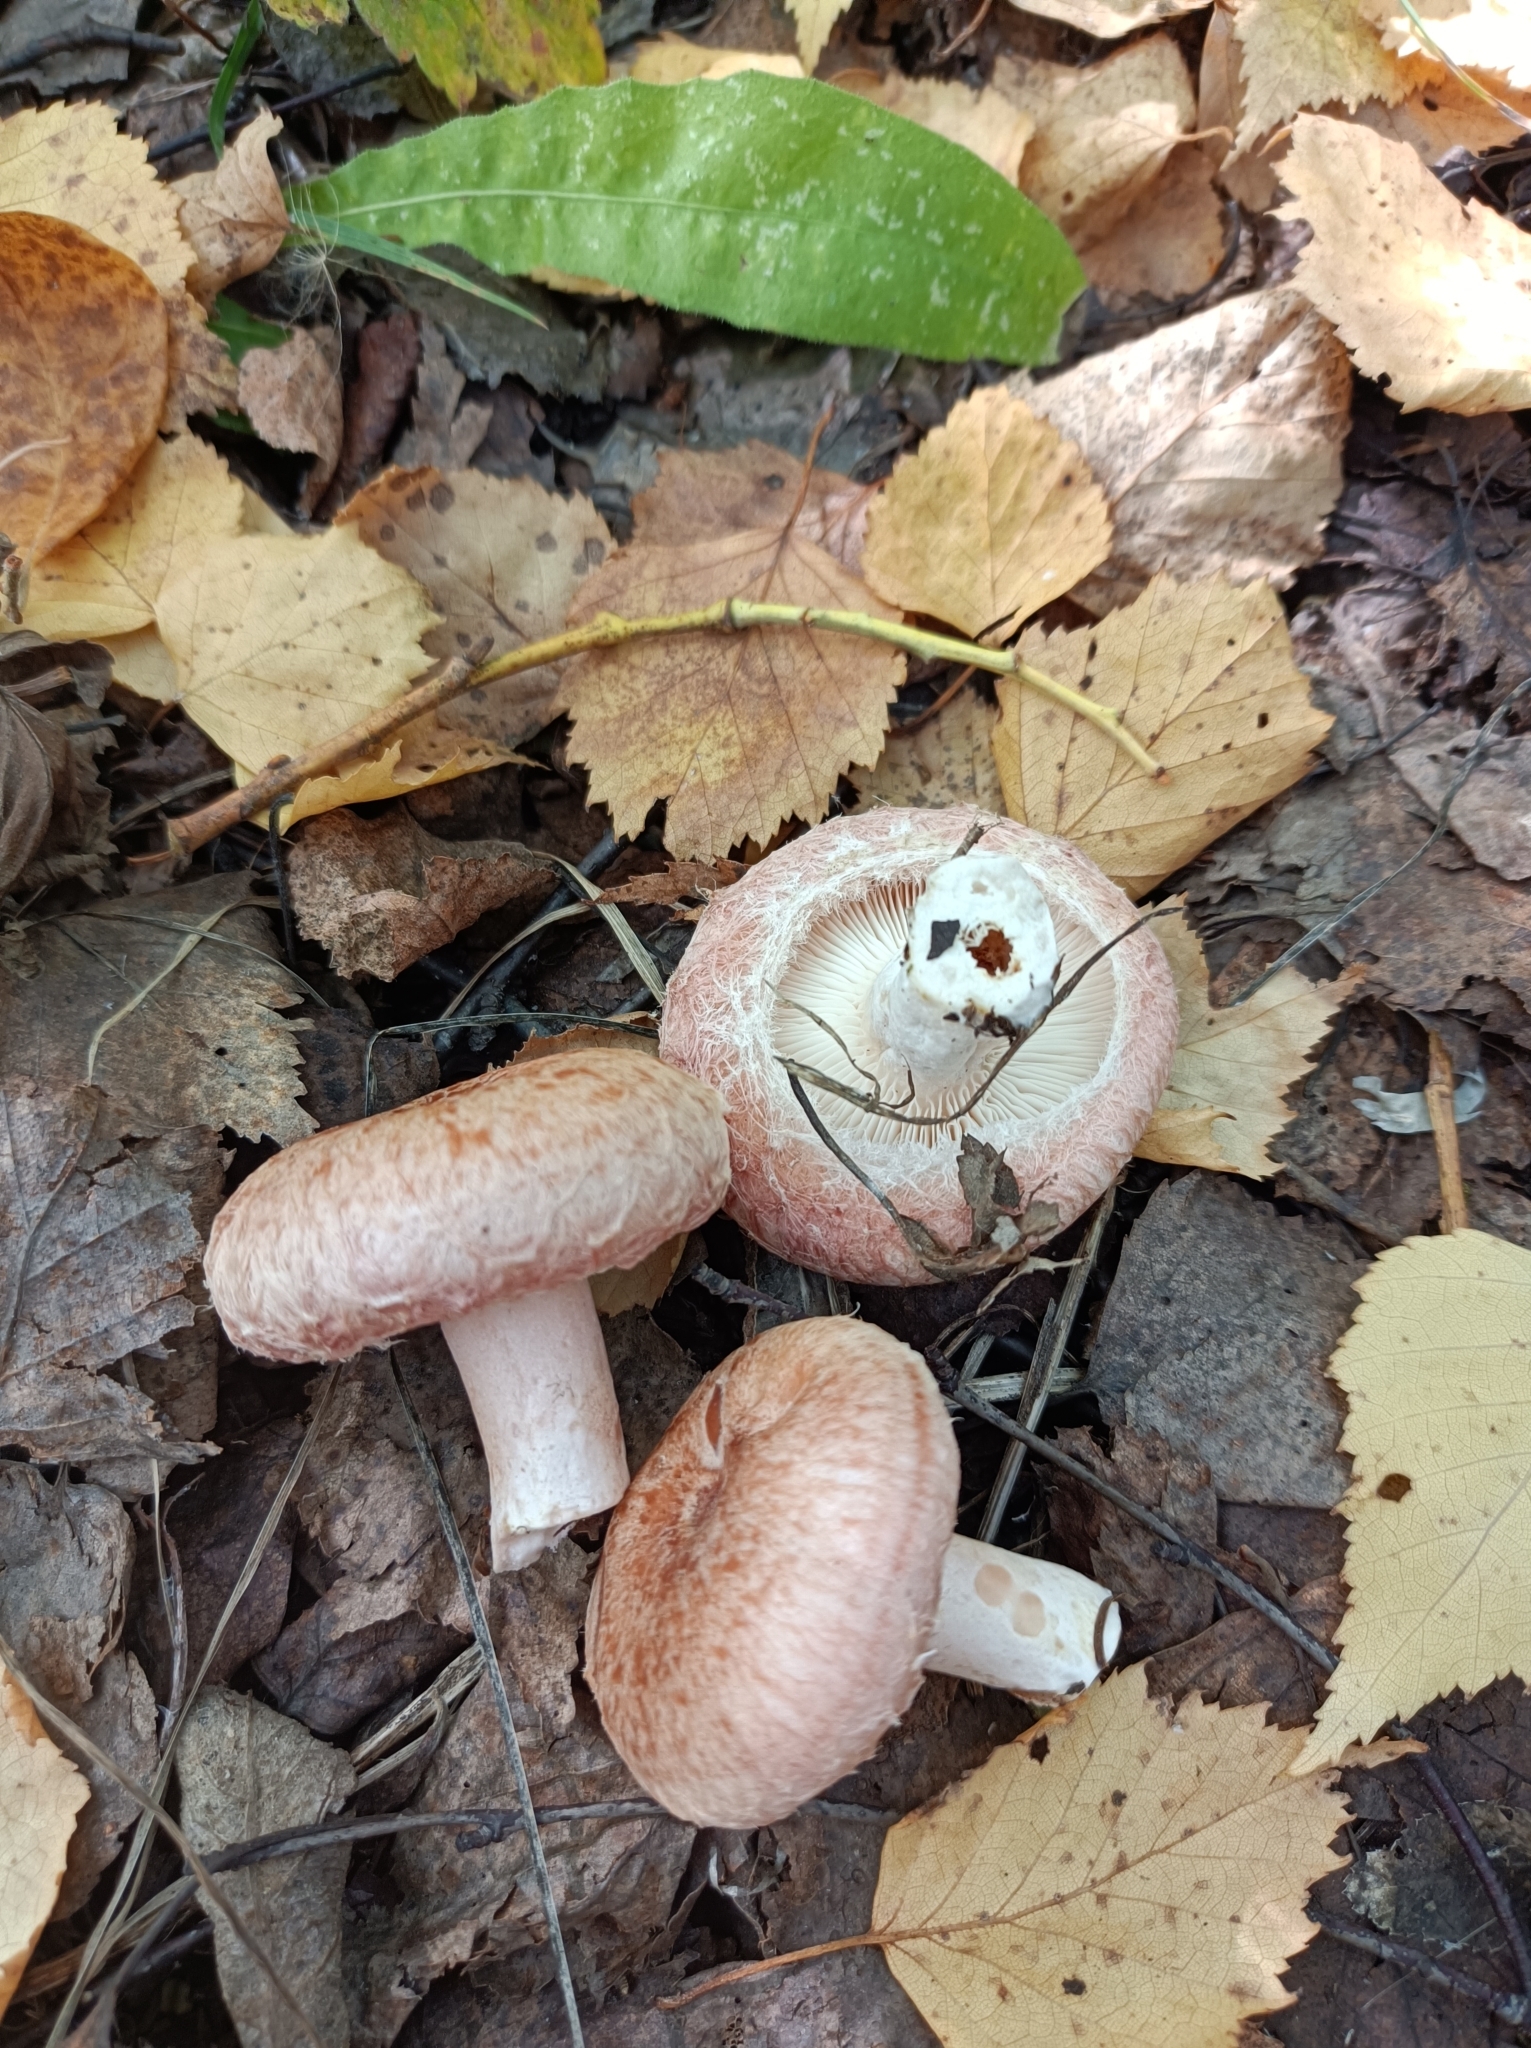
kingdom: Fungi
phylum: Basidiomycota
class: Agaricomycetes
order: Russulales
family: Russulaceae
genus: Lactarius
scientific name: Lactarius torminosus
